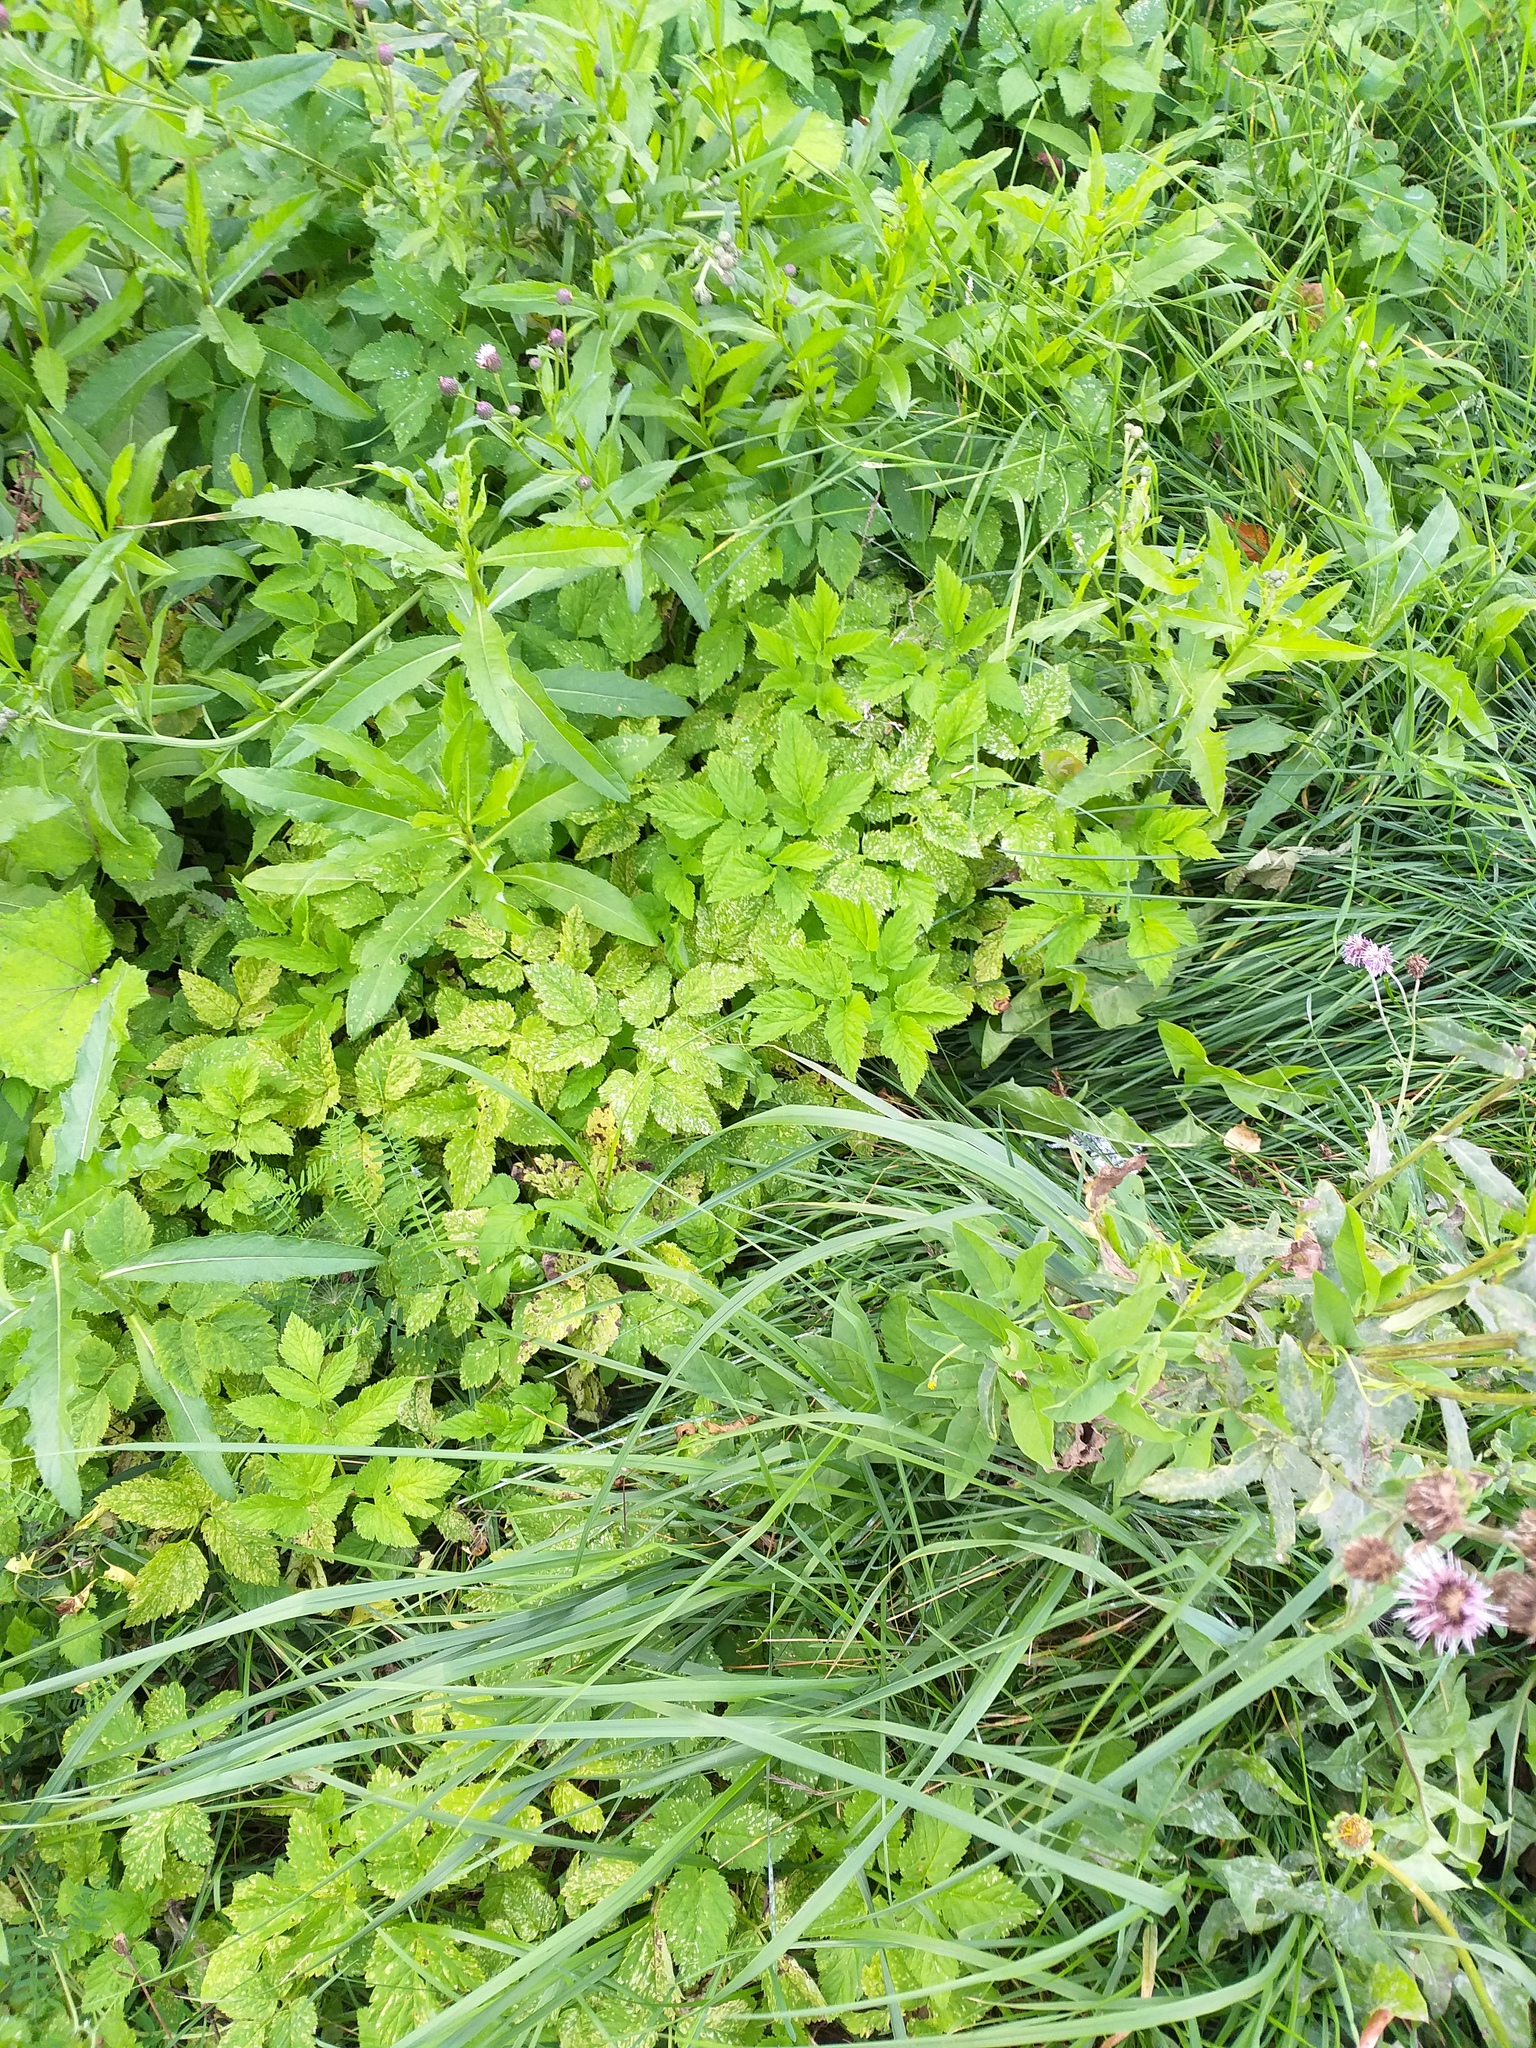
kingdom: Plantae
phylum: Tracheophyta
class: Magnoliopsida
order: Apiales
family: Apiaceae
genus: Aegopodium
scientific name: Aegopodium podagraria
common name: Ground-elder
